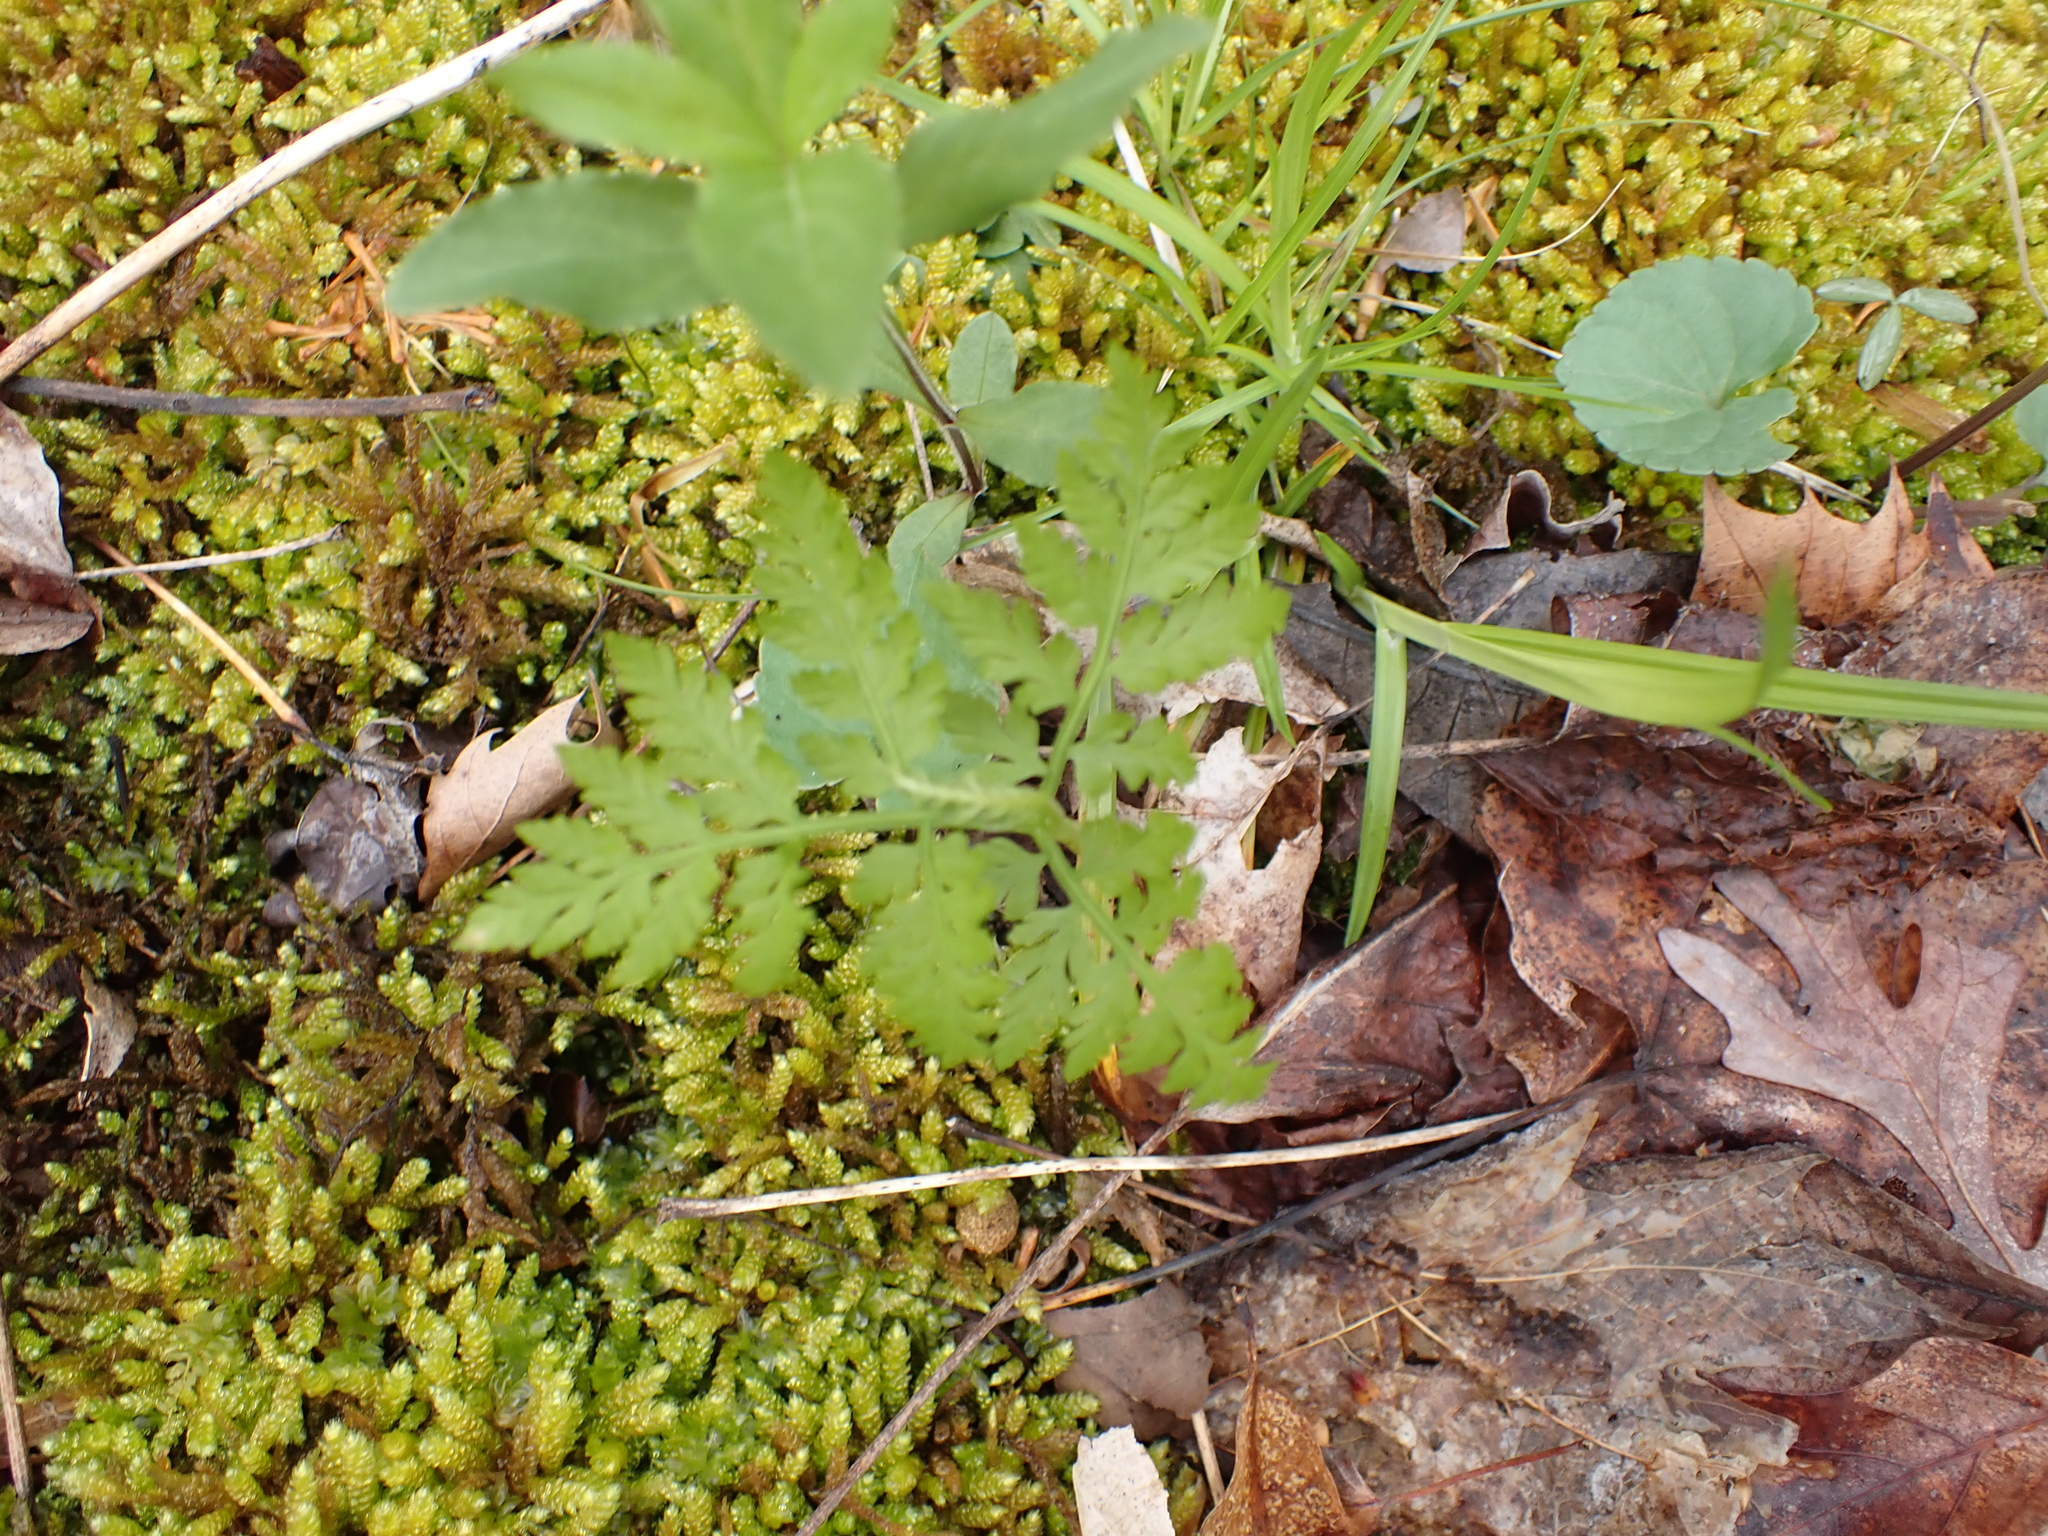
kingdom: Plantae
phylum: Tracheophyta
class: Polypodiopsida
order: Ophioglossales
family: Ophioglossaceae
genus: Botrypus
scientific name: Botrypus virginianus
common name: Common grapefern
